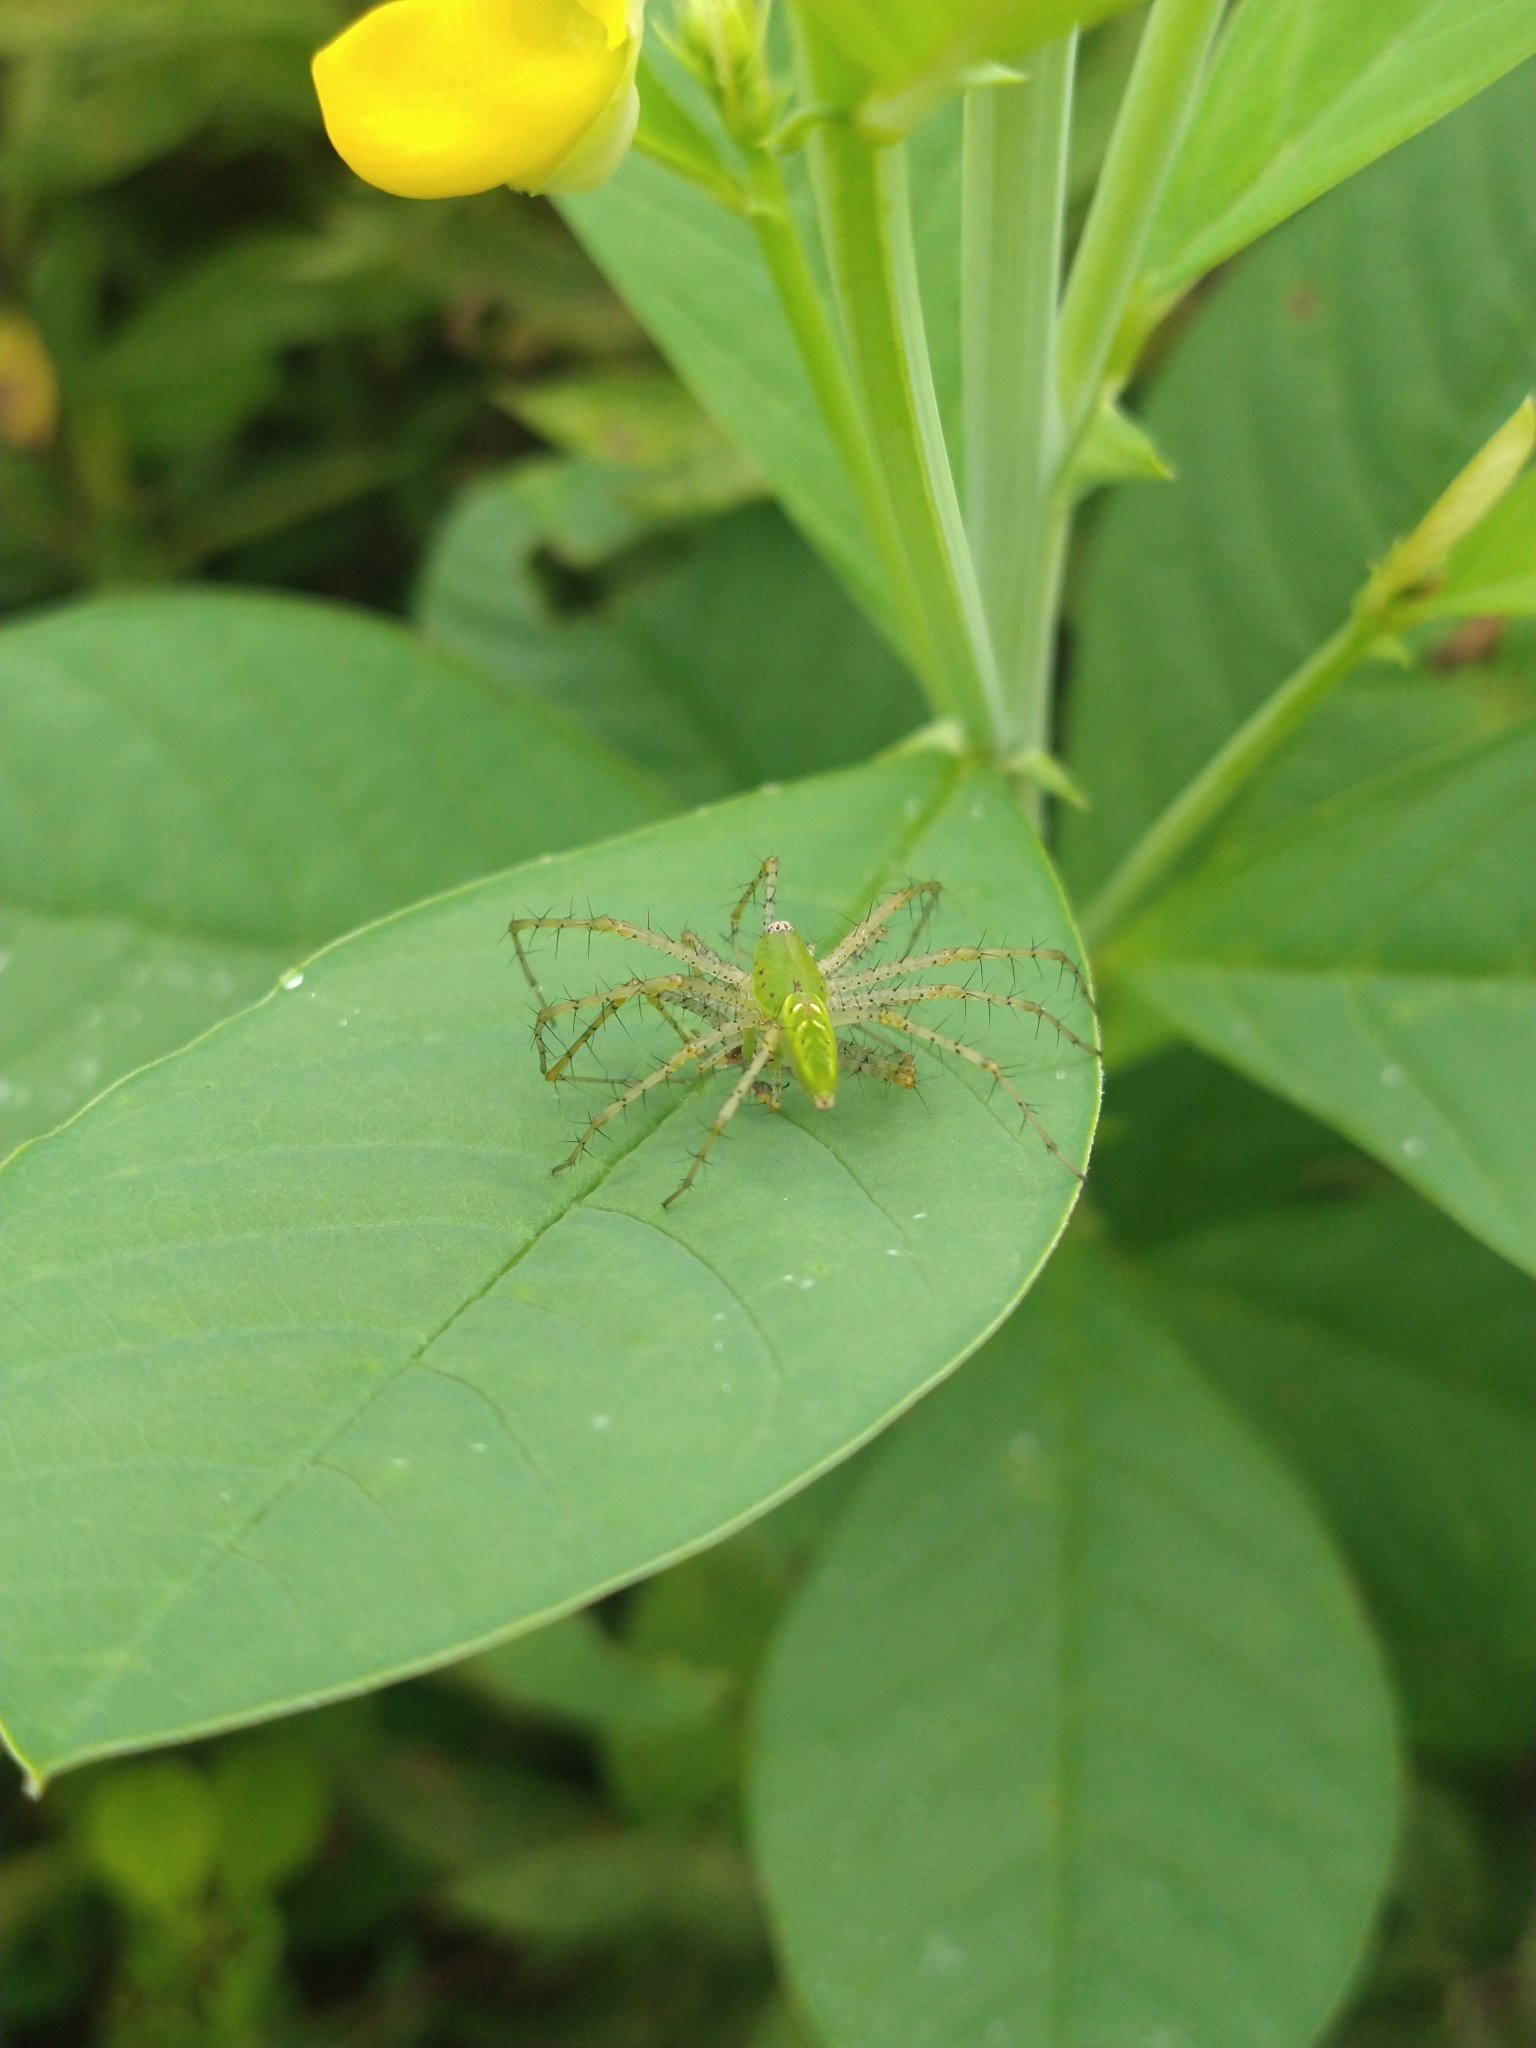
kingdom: Animalia
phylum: Arthropoda
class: Arachnida
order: Araneae
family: Oxyopidae
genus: Peucetia
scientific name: Peucetia viridans
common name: Lynx spiders
